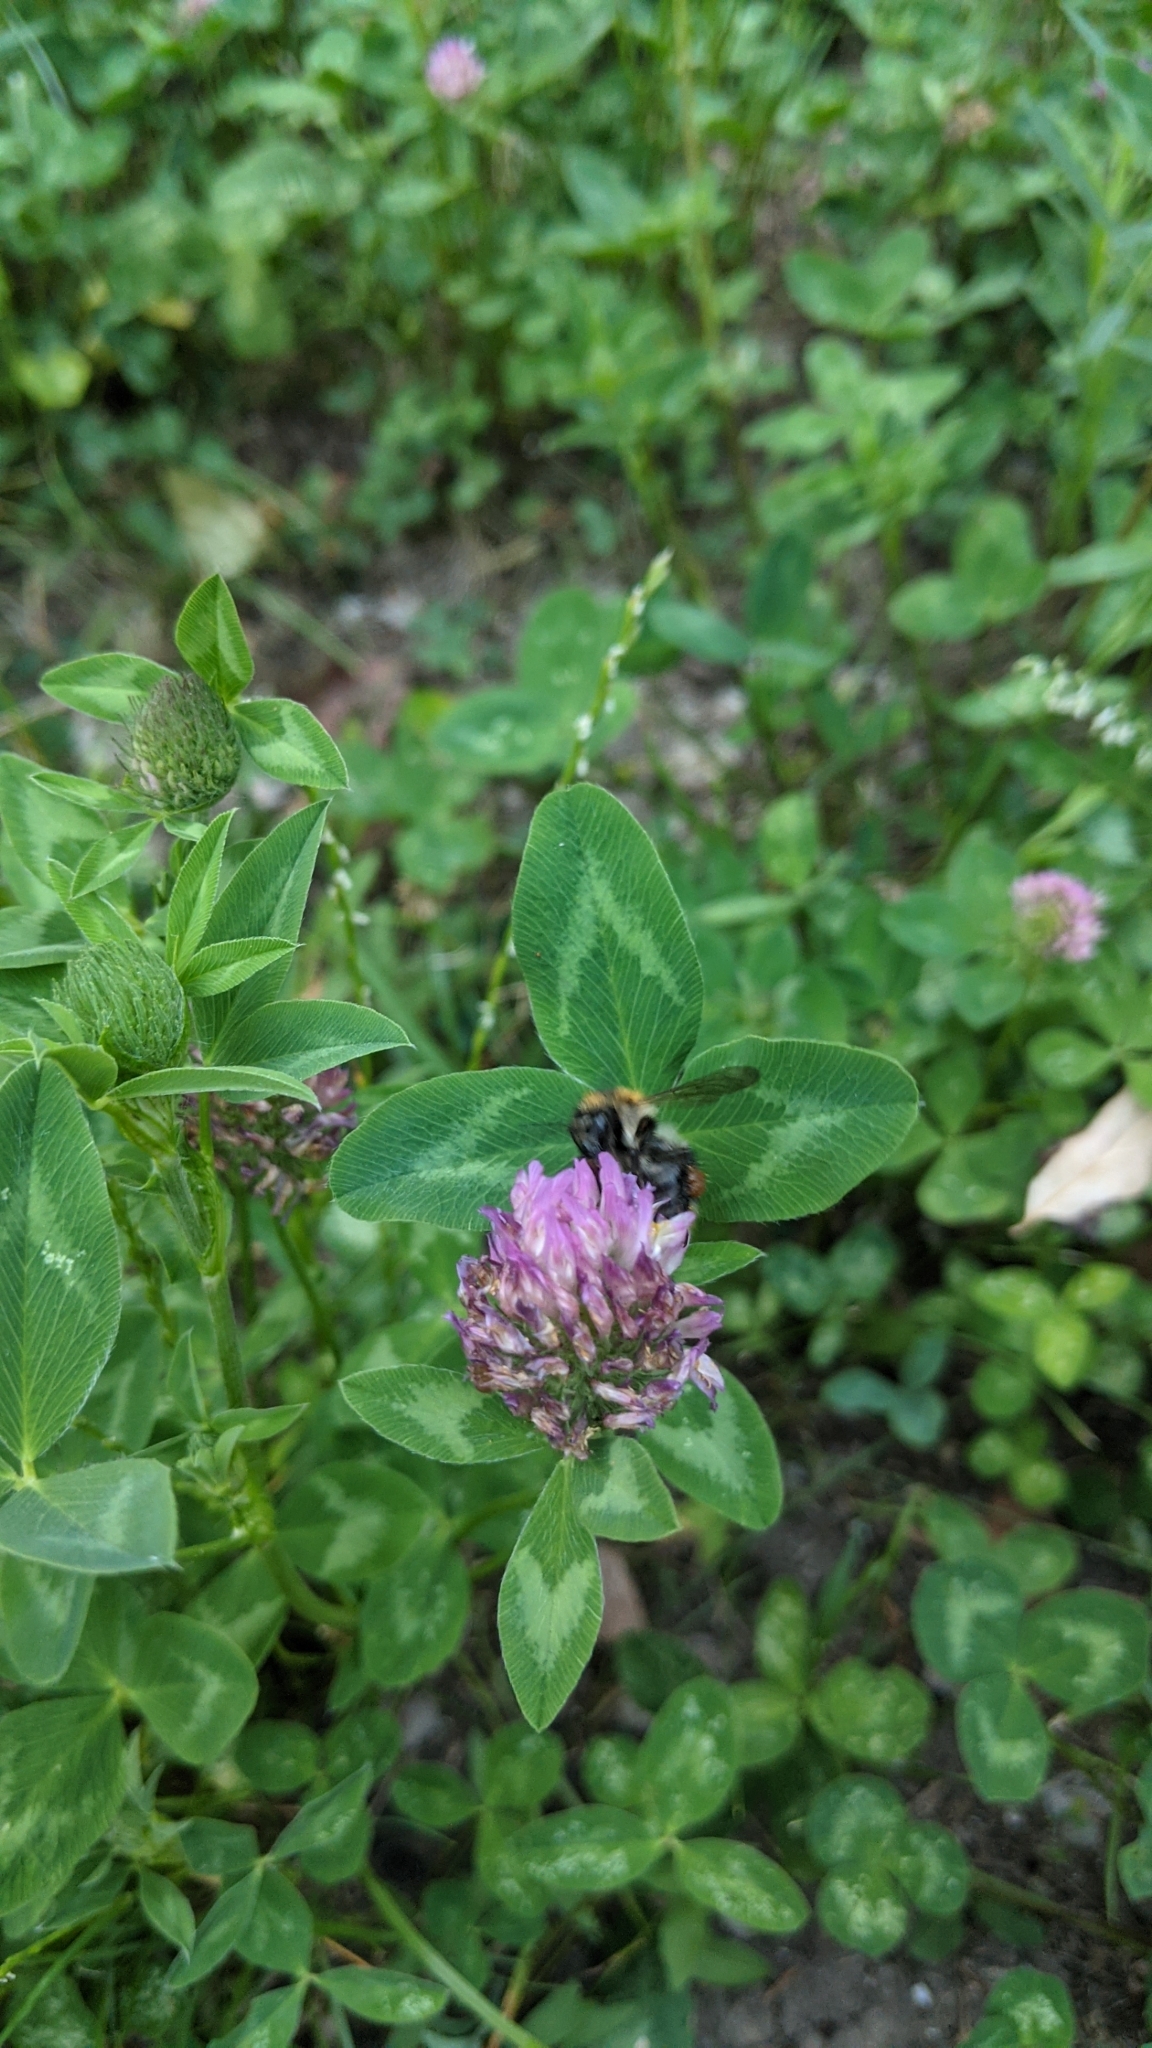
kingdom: Animalia
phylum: Arthropoda
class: Insecta
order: Hymenoptera
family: Apidae
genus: Bombus
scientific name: Bombus pascuorum
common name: Common carder bee
